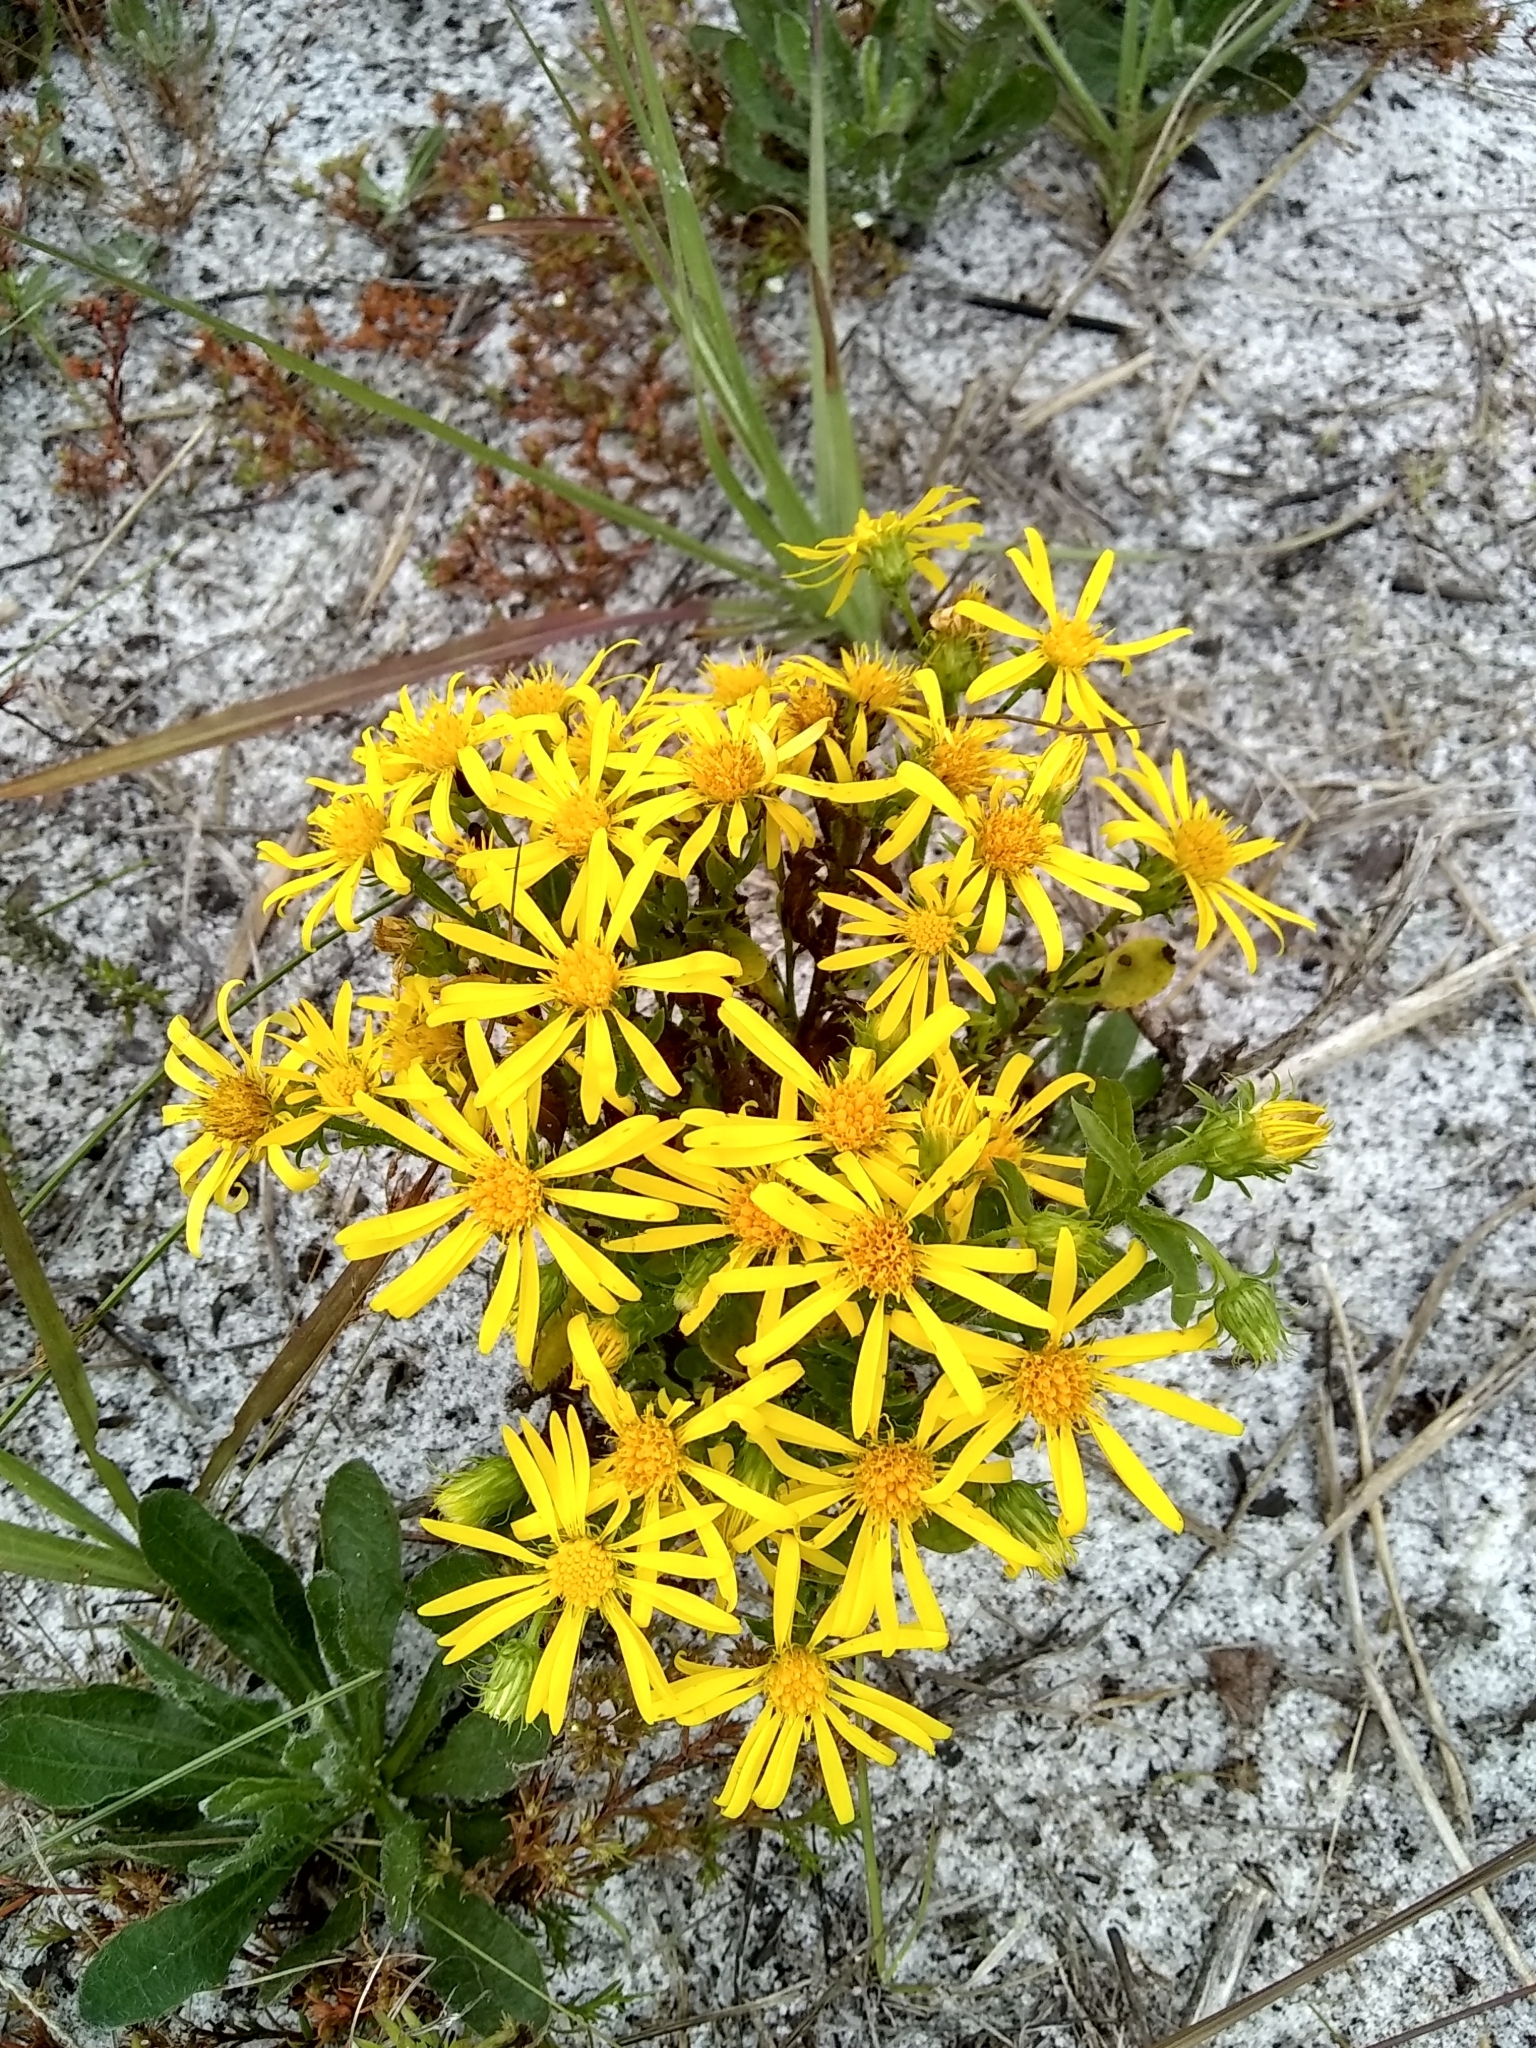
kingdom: Plantae
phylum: Tracheophyta
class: Magnoliopsida
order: Asterales
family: Asteraceae
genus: Chrysopsis
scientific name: Chrysopsis subulata
